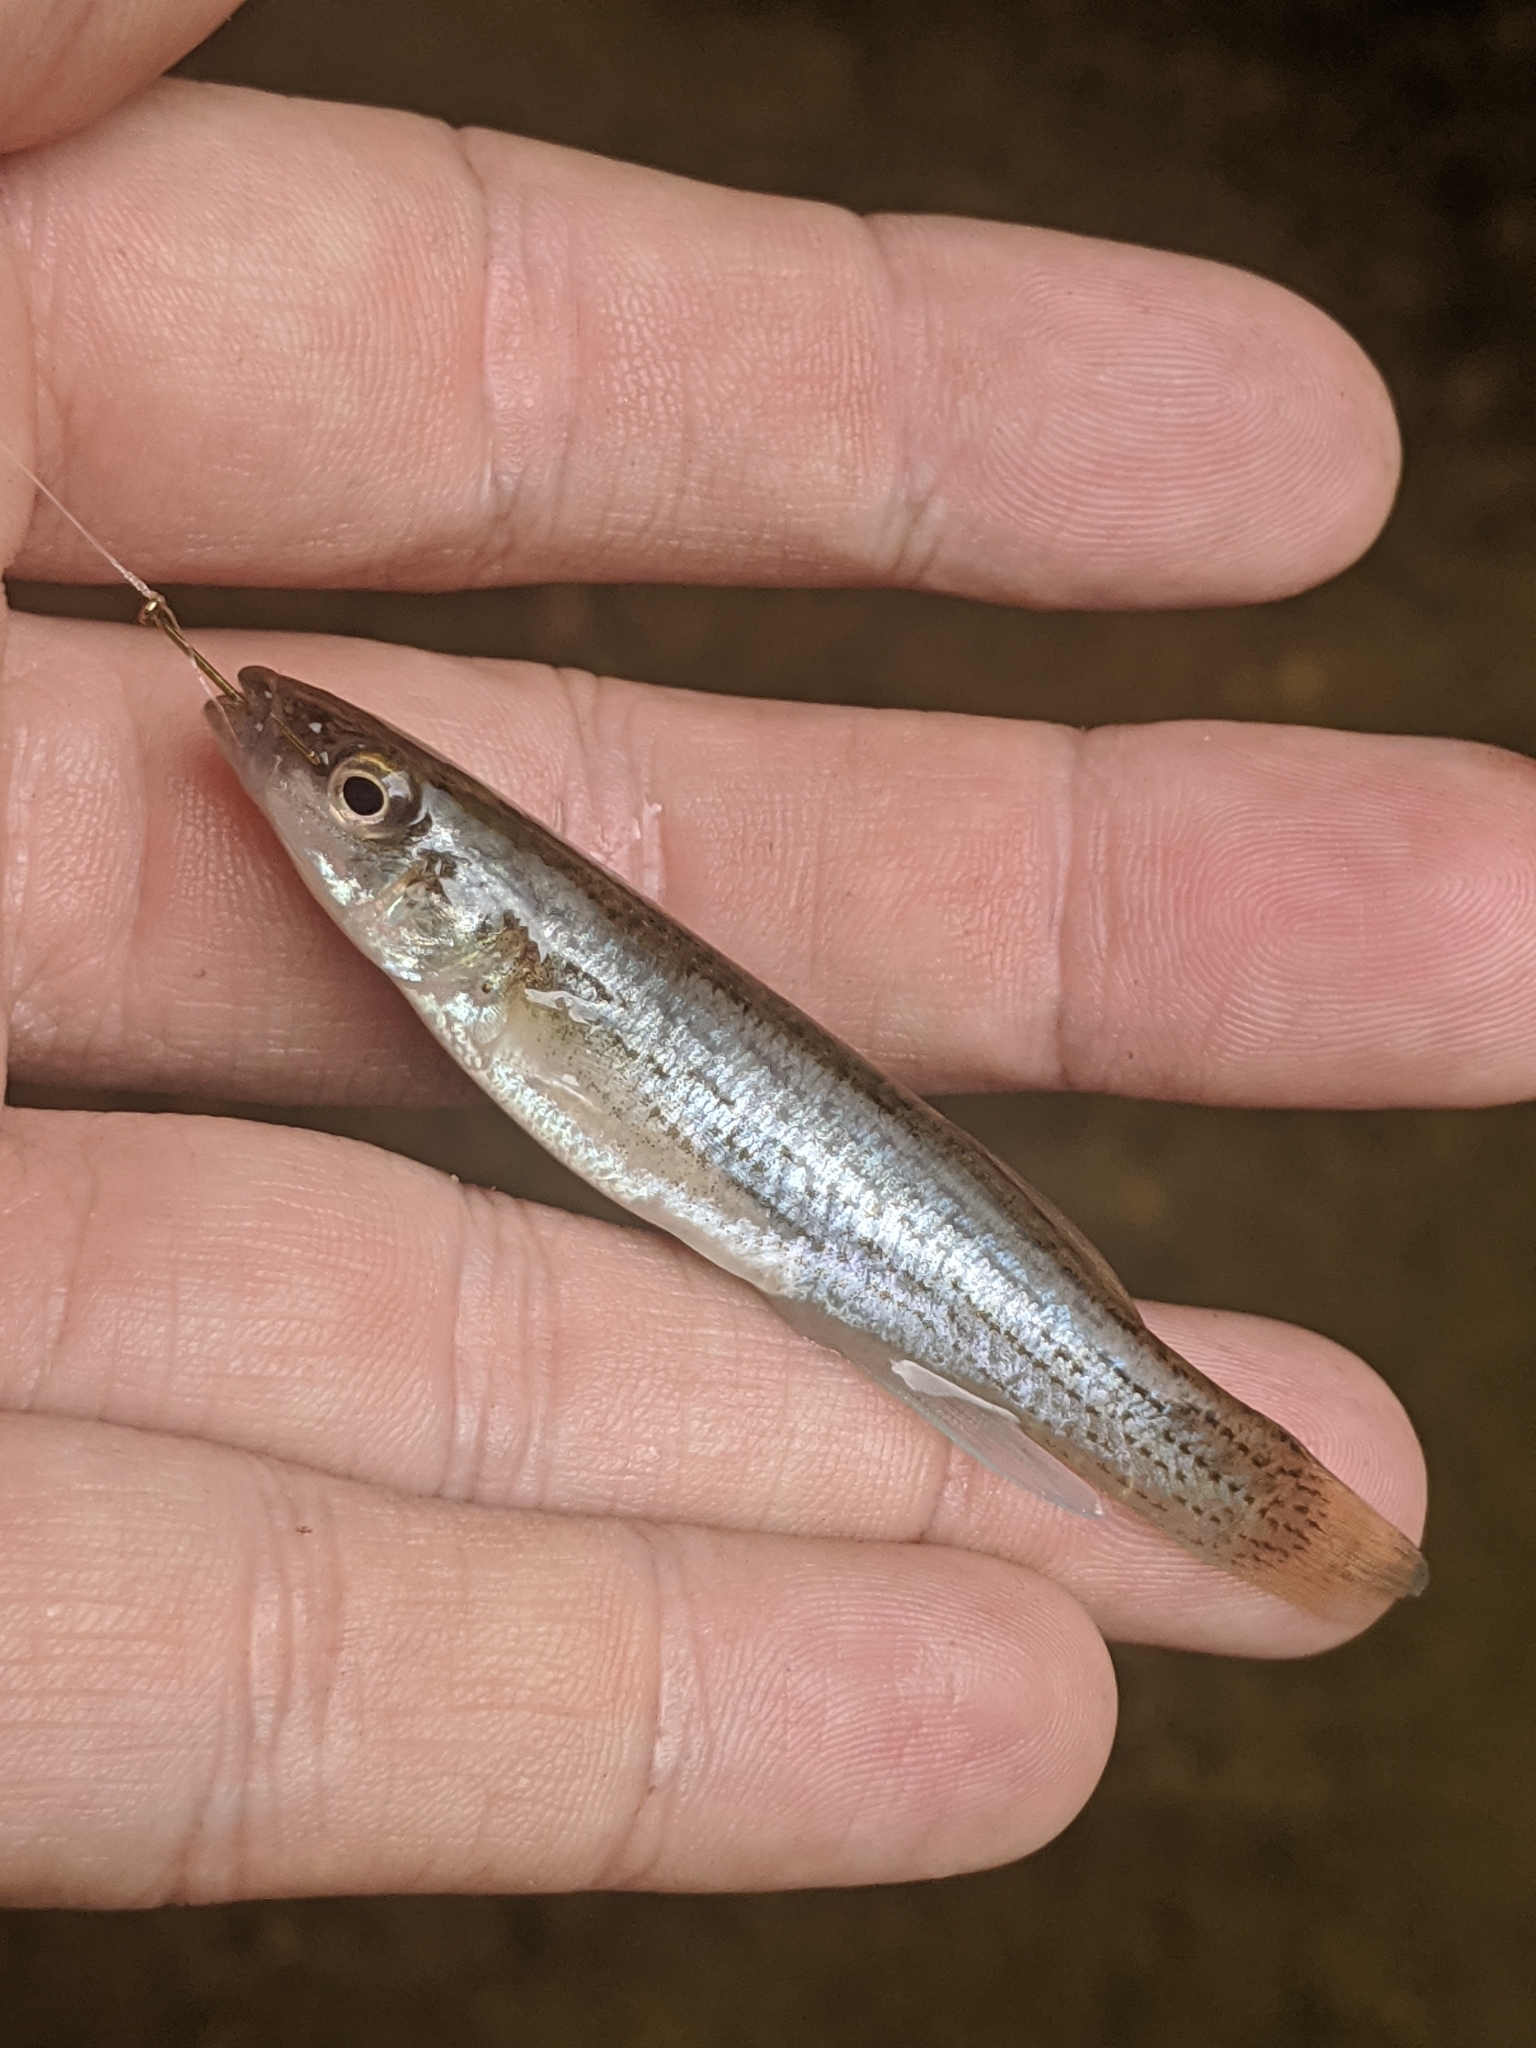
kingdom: Animalia
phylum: Chordata
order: Cyprinodontiformes
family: Fundulidae
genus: Fundulus
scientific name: Fundulus catenatus
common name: Northern studfish
